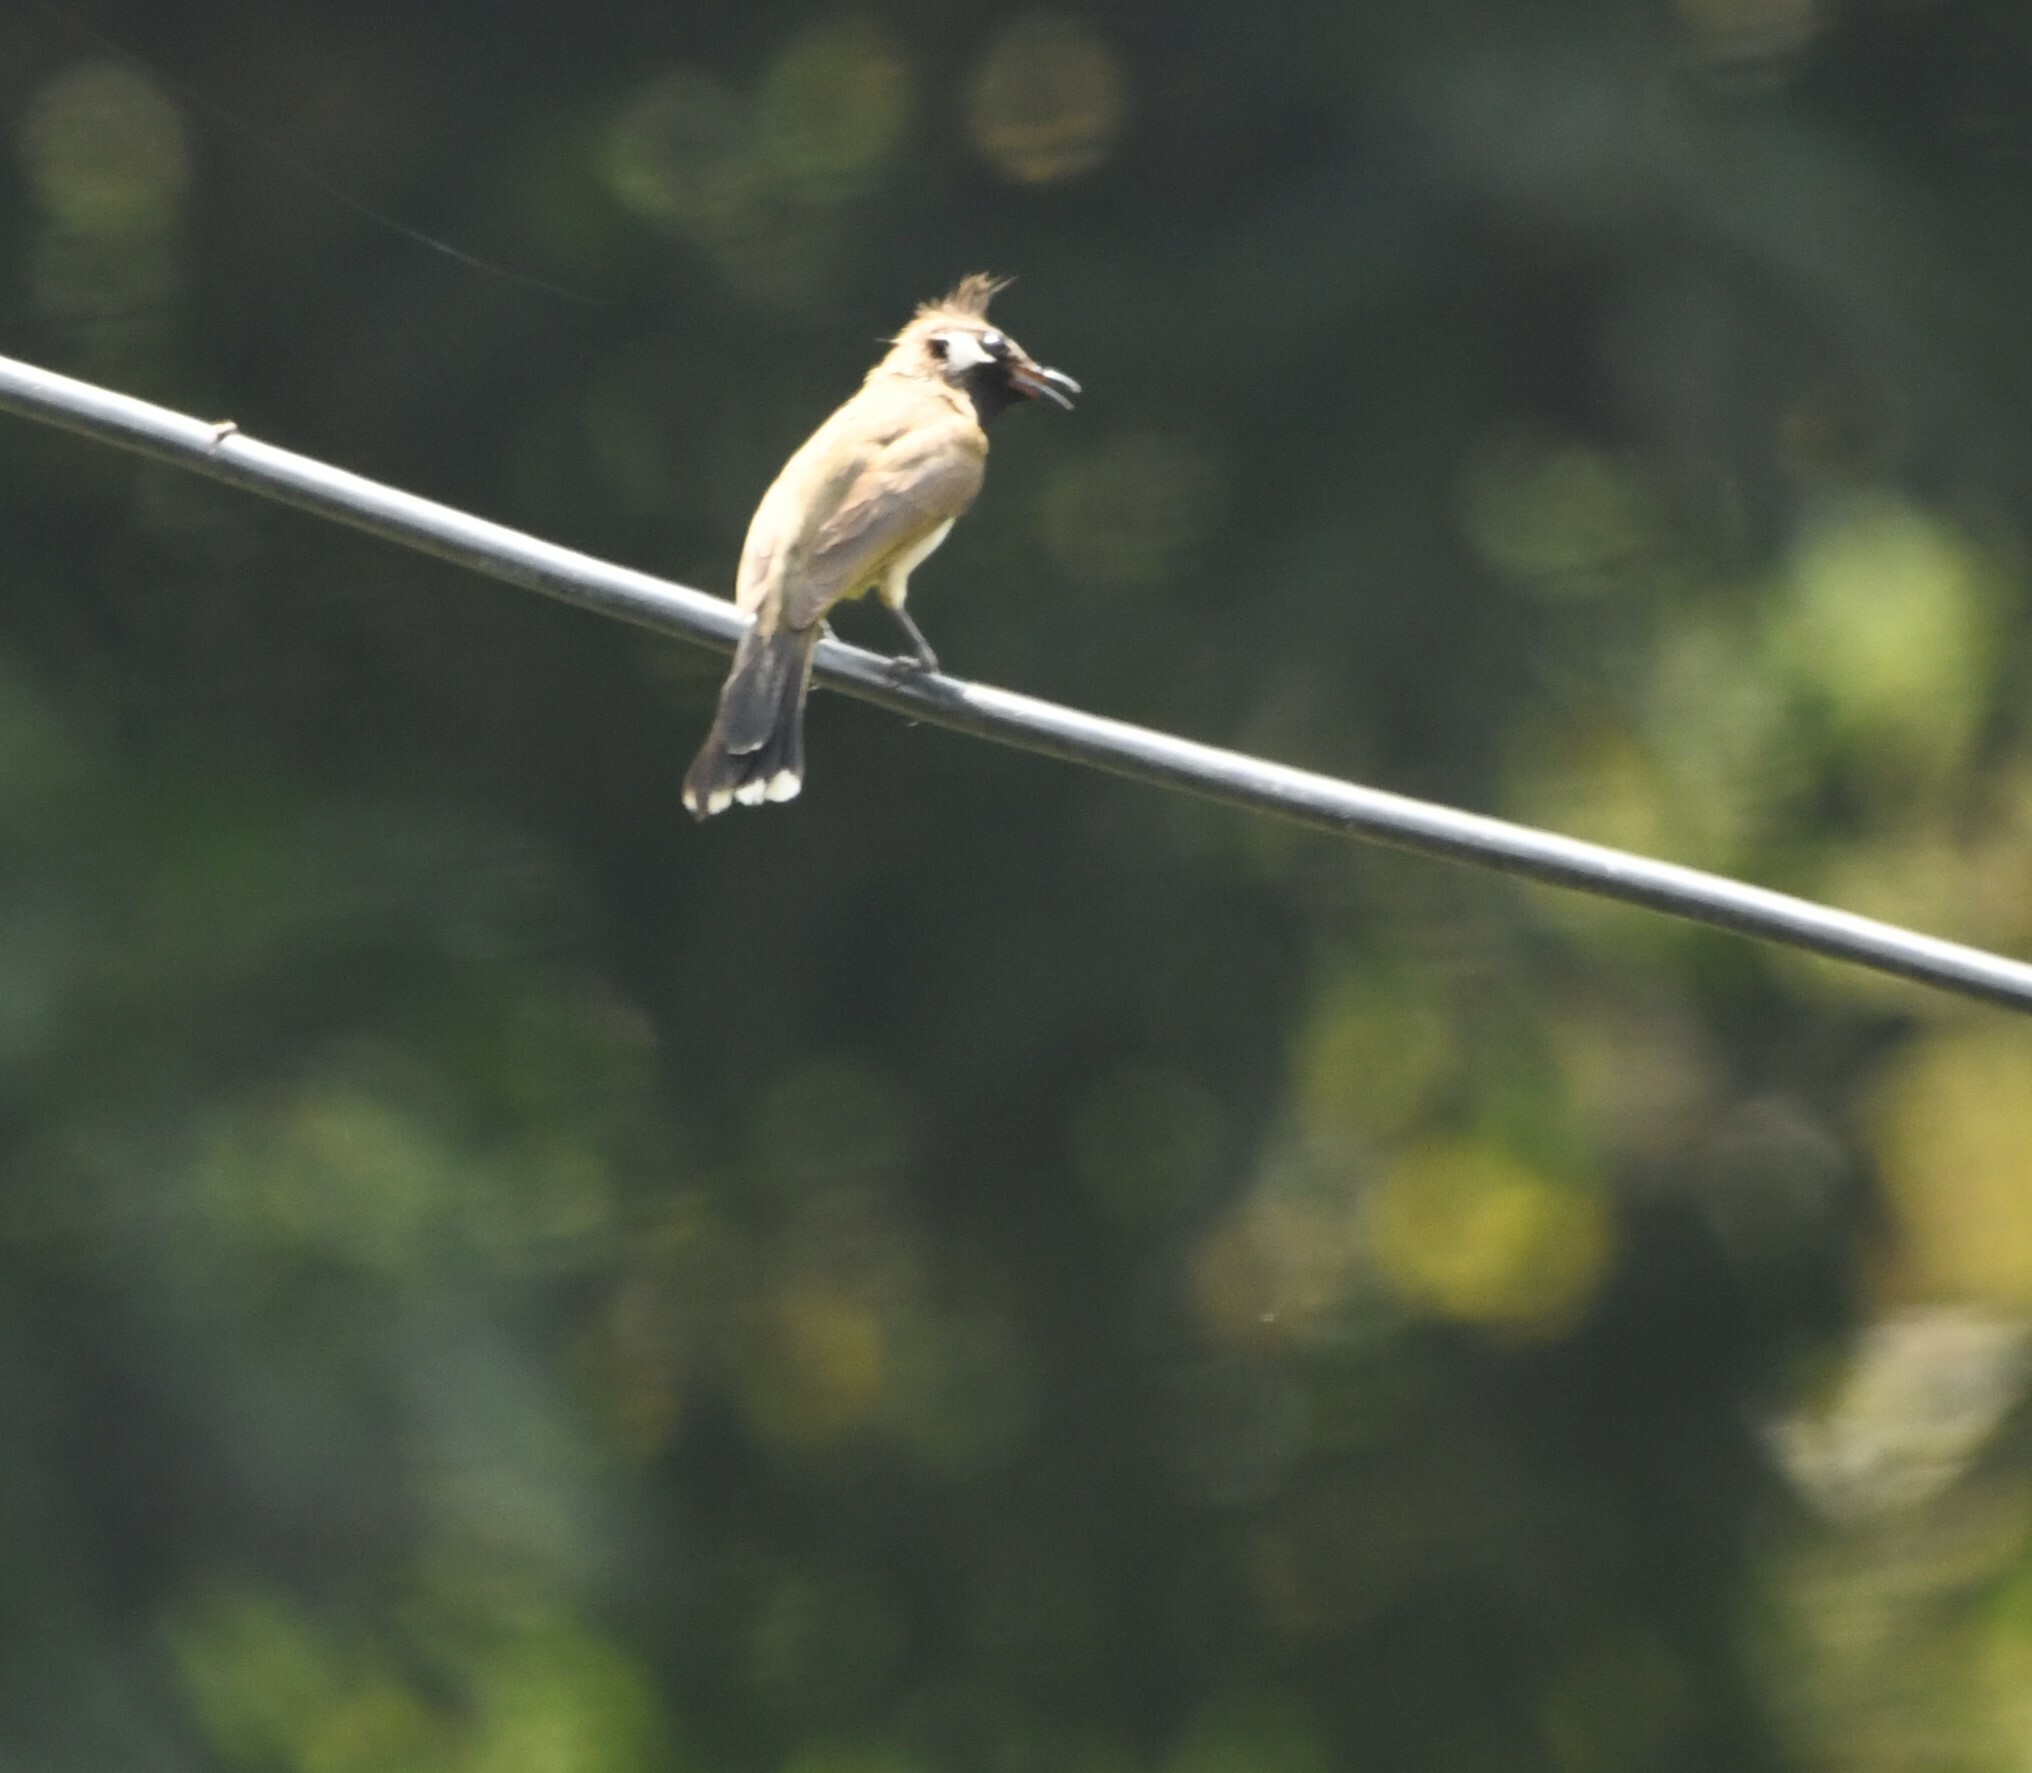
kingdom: Animalia
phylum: Chordata
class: Aves
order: Passeriformes
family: Pycnonotidae
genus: Pycnonotus
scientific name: Pycnonotus leucogenys
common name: Himalayan bulbul
